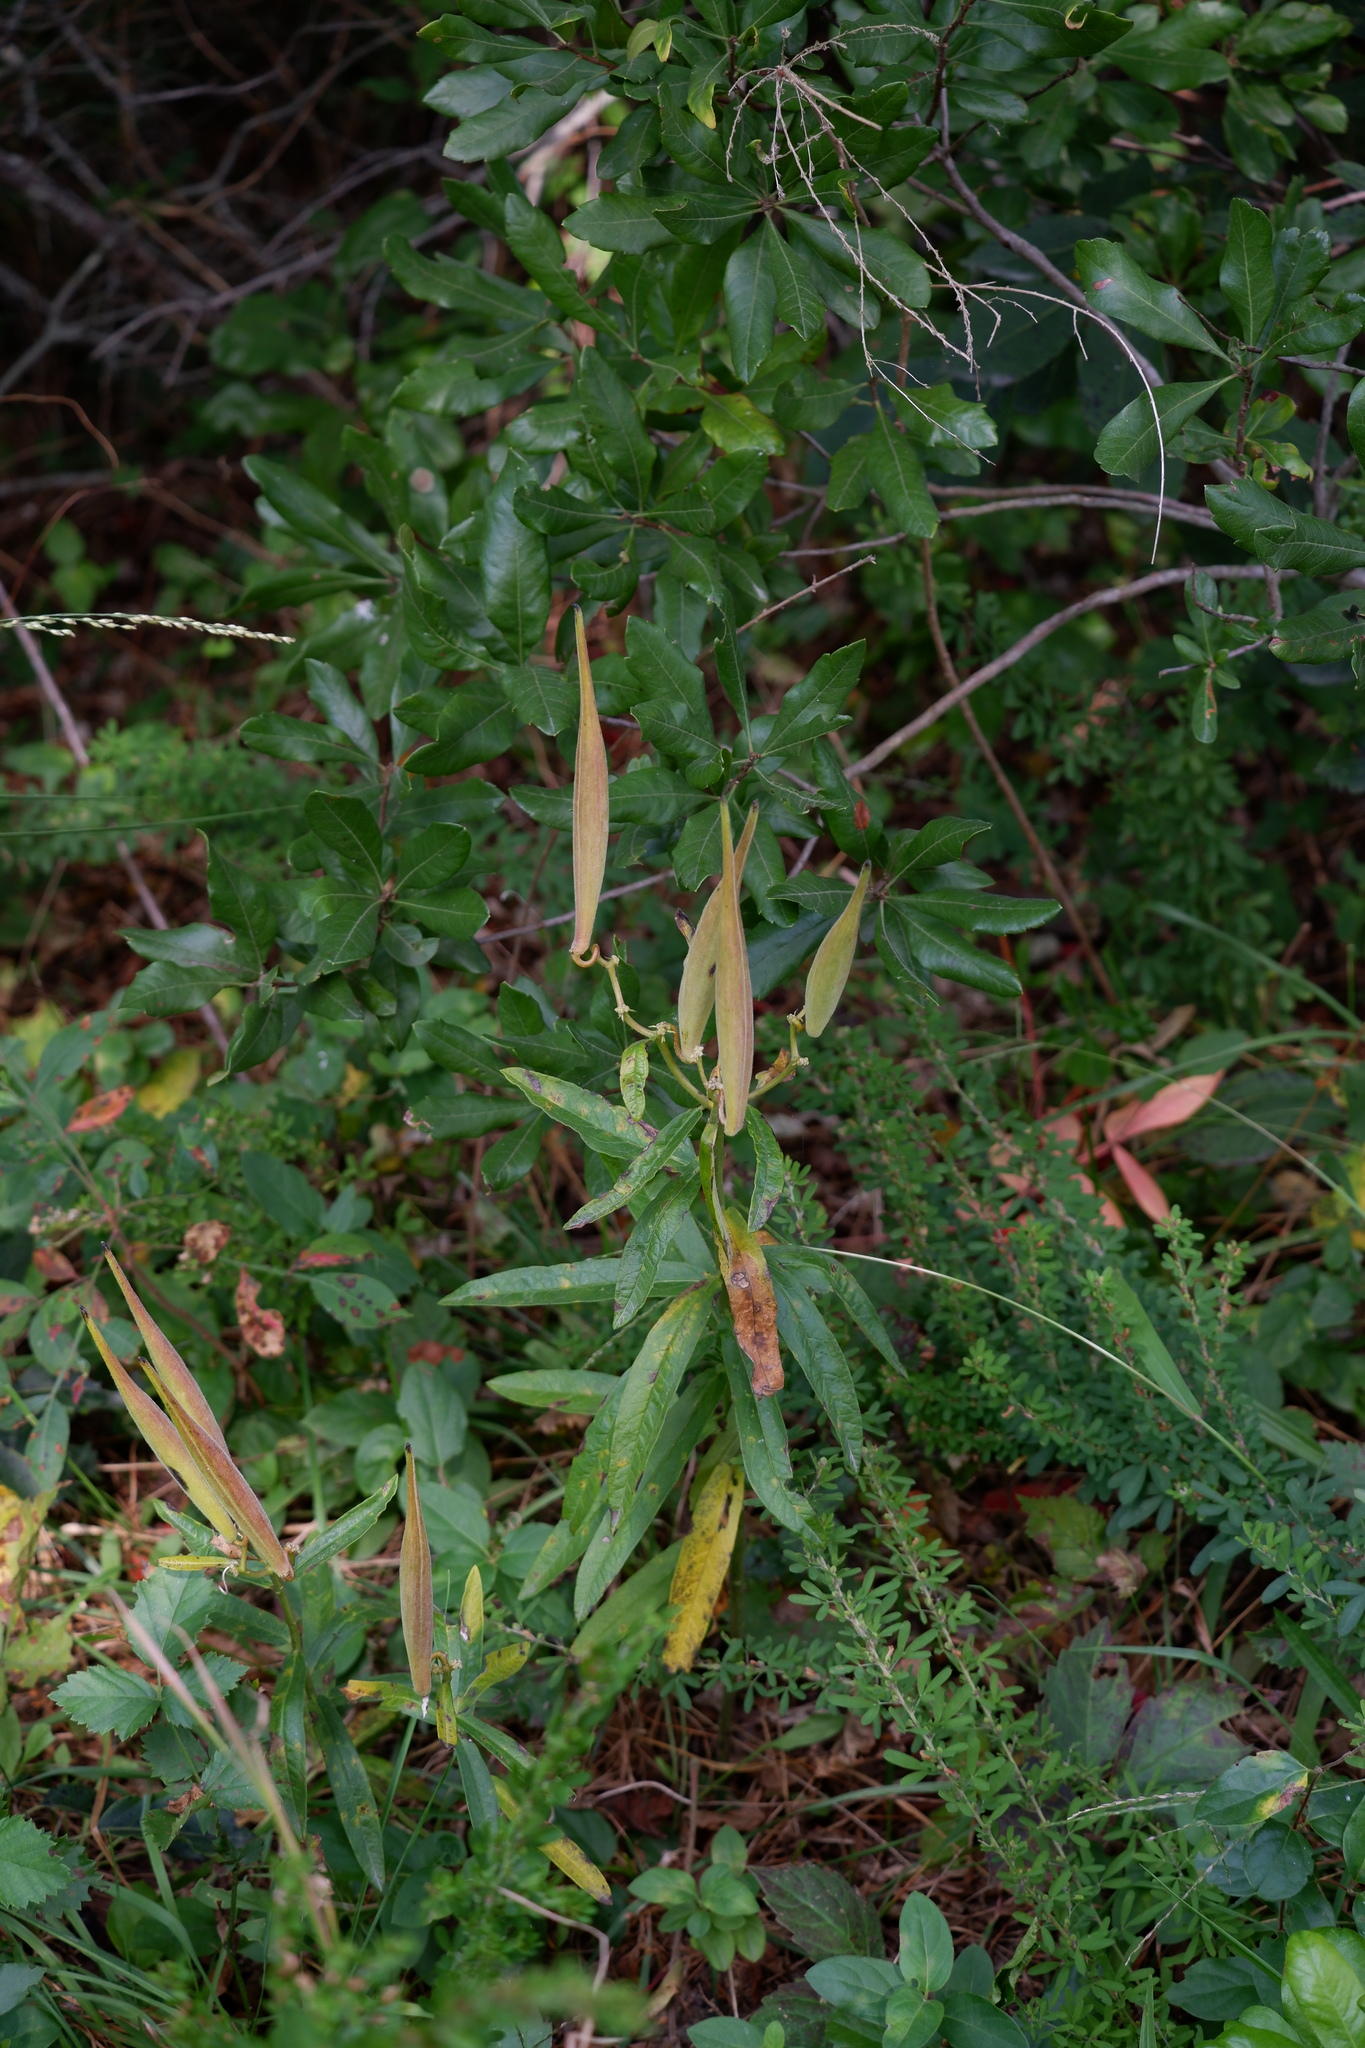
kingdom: Plantae
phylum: Tracheophyta
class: Magnoliopsida
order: Gentianales
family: Apocynaceae
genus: Asclepias
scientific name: Asclepias tuberosa
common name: Butterfly milkweed
